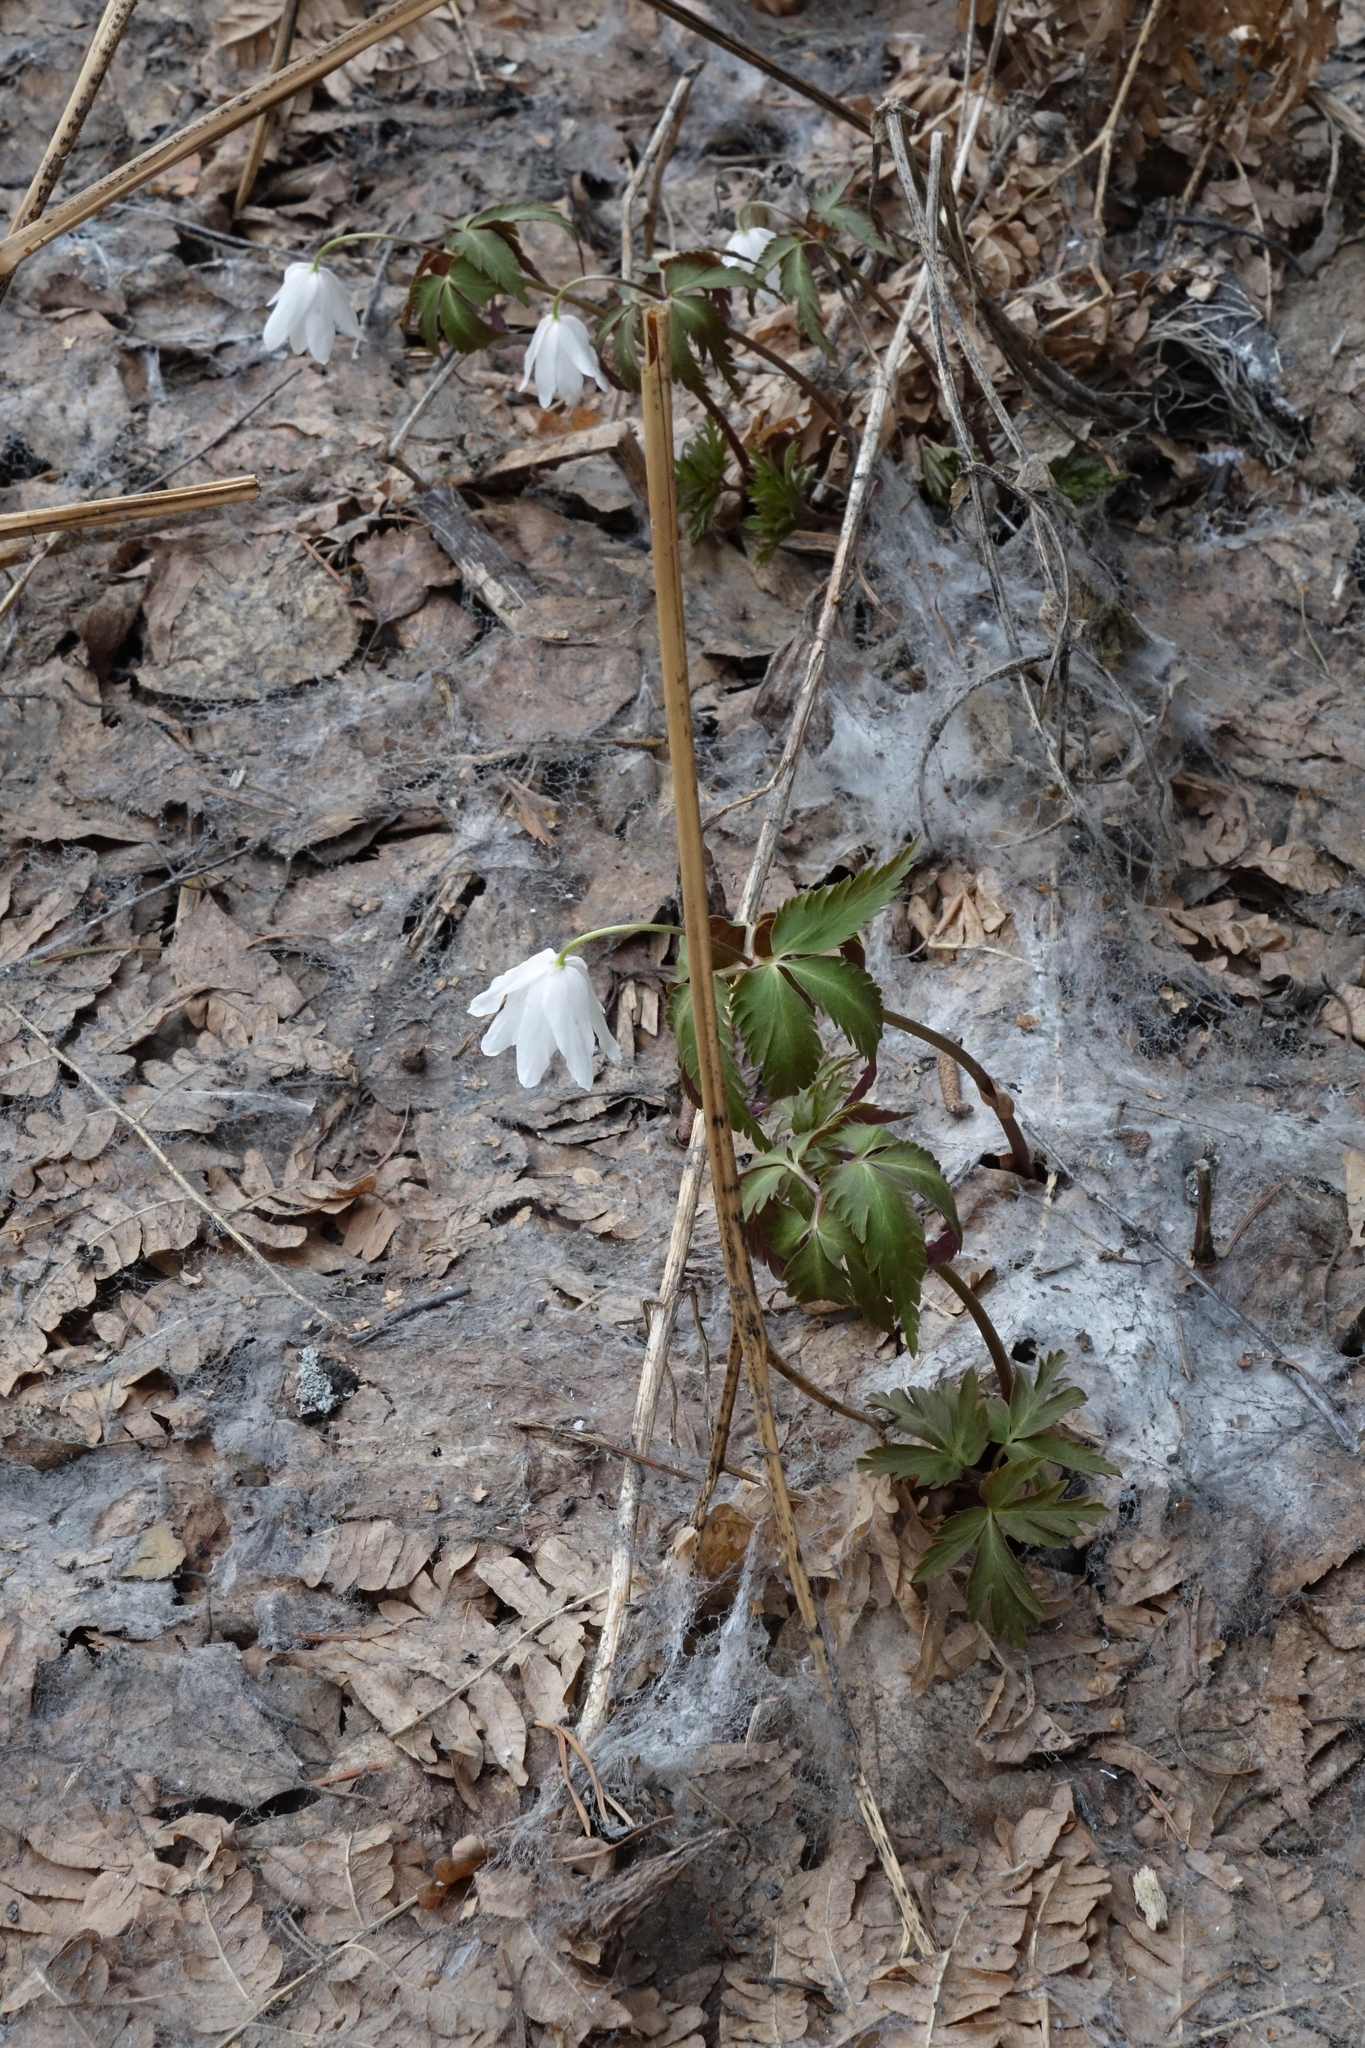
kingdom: Plantae
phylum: Tracheophyta
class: Magnoliopsida
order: Ranunculales
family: Ranunculaceae
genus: Anemone
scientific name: Anemone altaica
